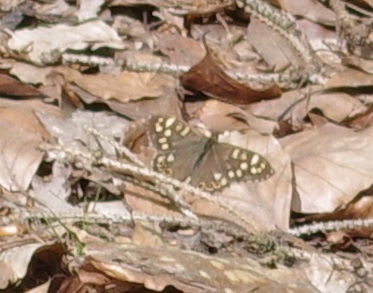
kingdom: Animalia
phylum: Arthropoda
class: Insecta
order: Lepidoptera
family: Nymphalidae
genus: Pararge
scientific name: Pararge aegeria
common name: Speckled wood
